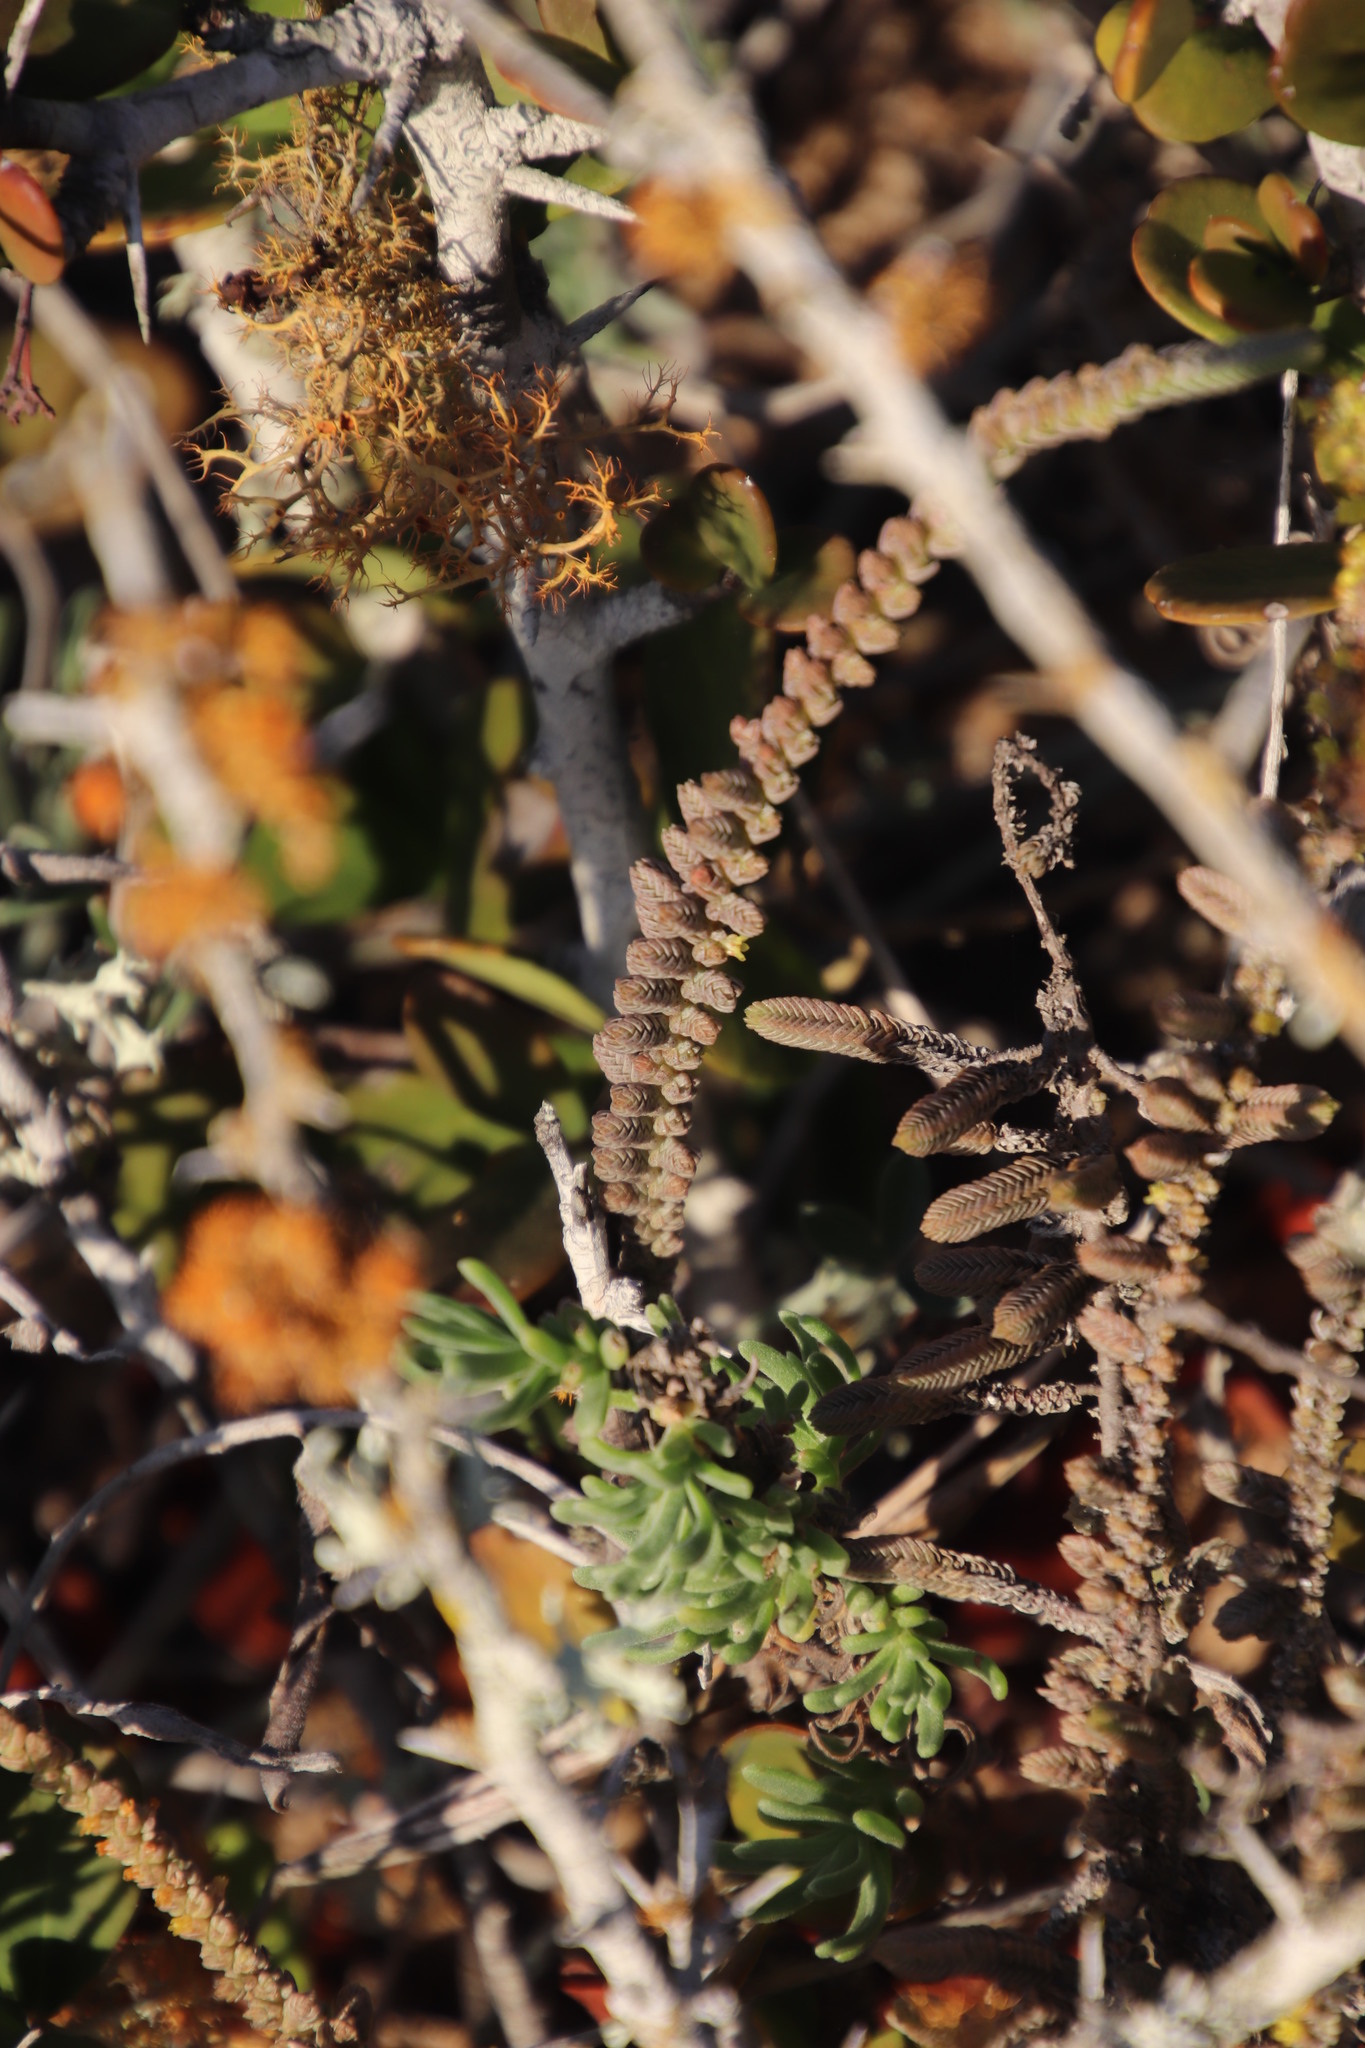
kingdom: Plantae
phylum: Tracheophyta
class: Magnoliopsida
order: Saxifragales
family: Crassulaceae
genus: Crassula
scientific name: Crassula muscosa
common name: Toy-cypress
